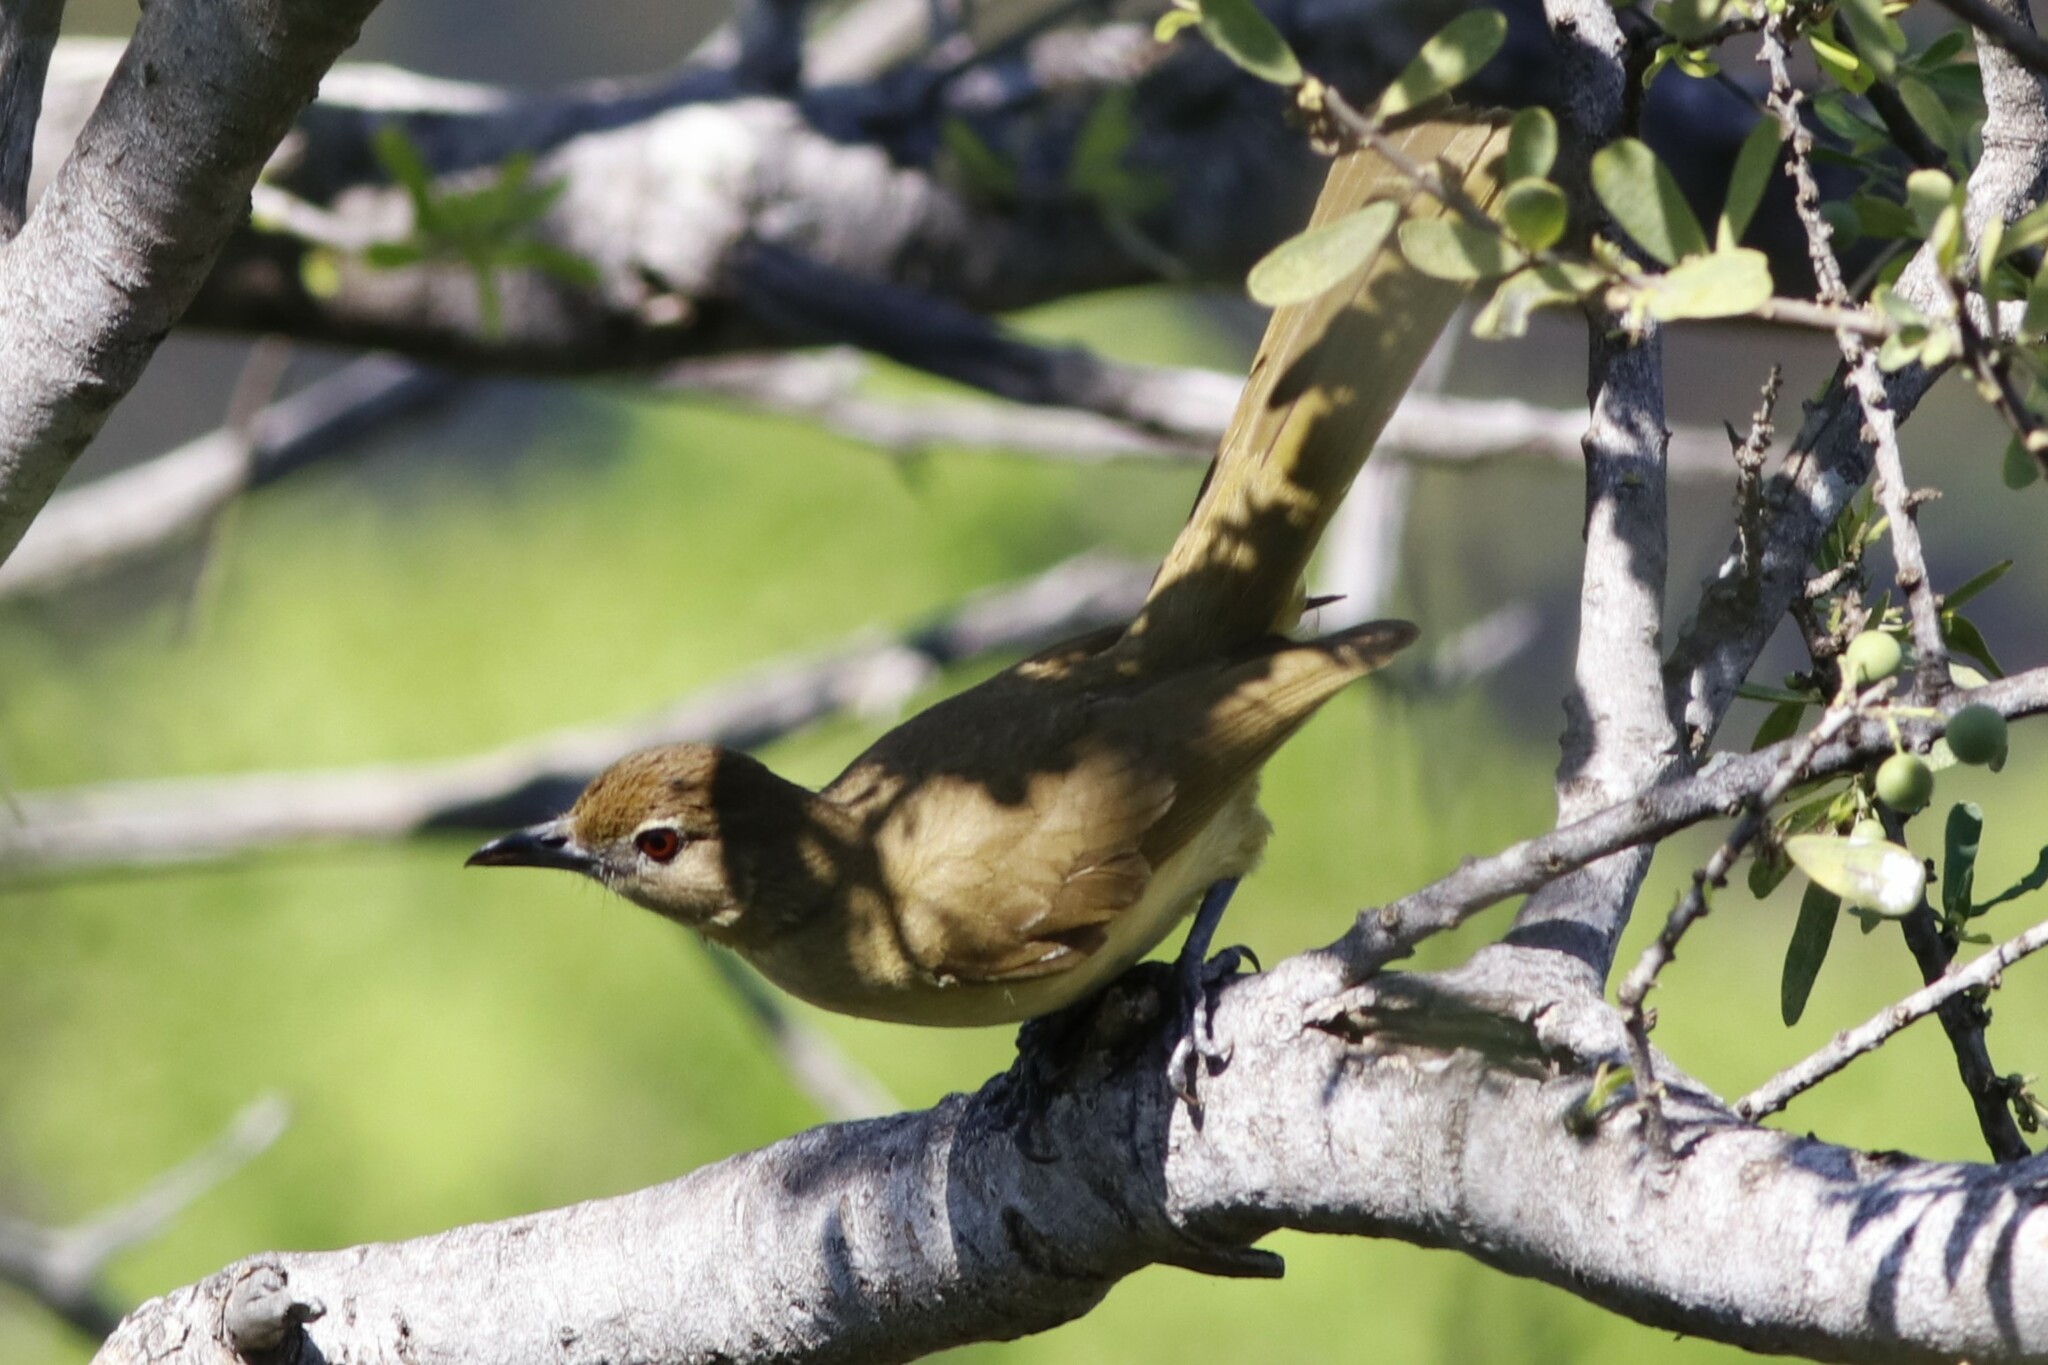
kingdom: Animalia
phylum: Chordata
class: Aves
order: Passeriformes
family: Pycnonotidae
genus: Chlorocichla
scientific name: Chlorocichla flaviventris
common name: Yellow-bellied greenbul
